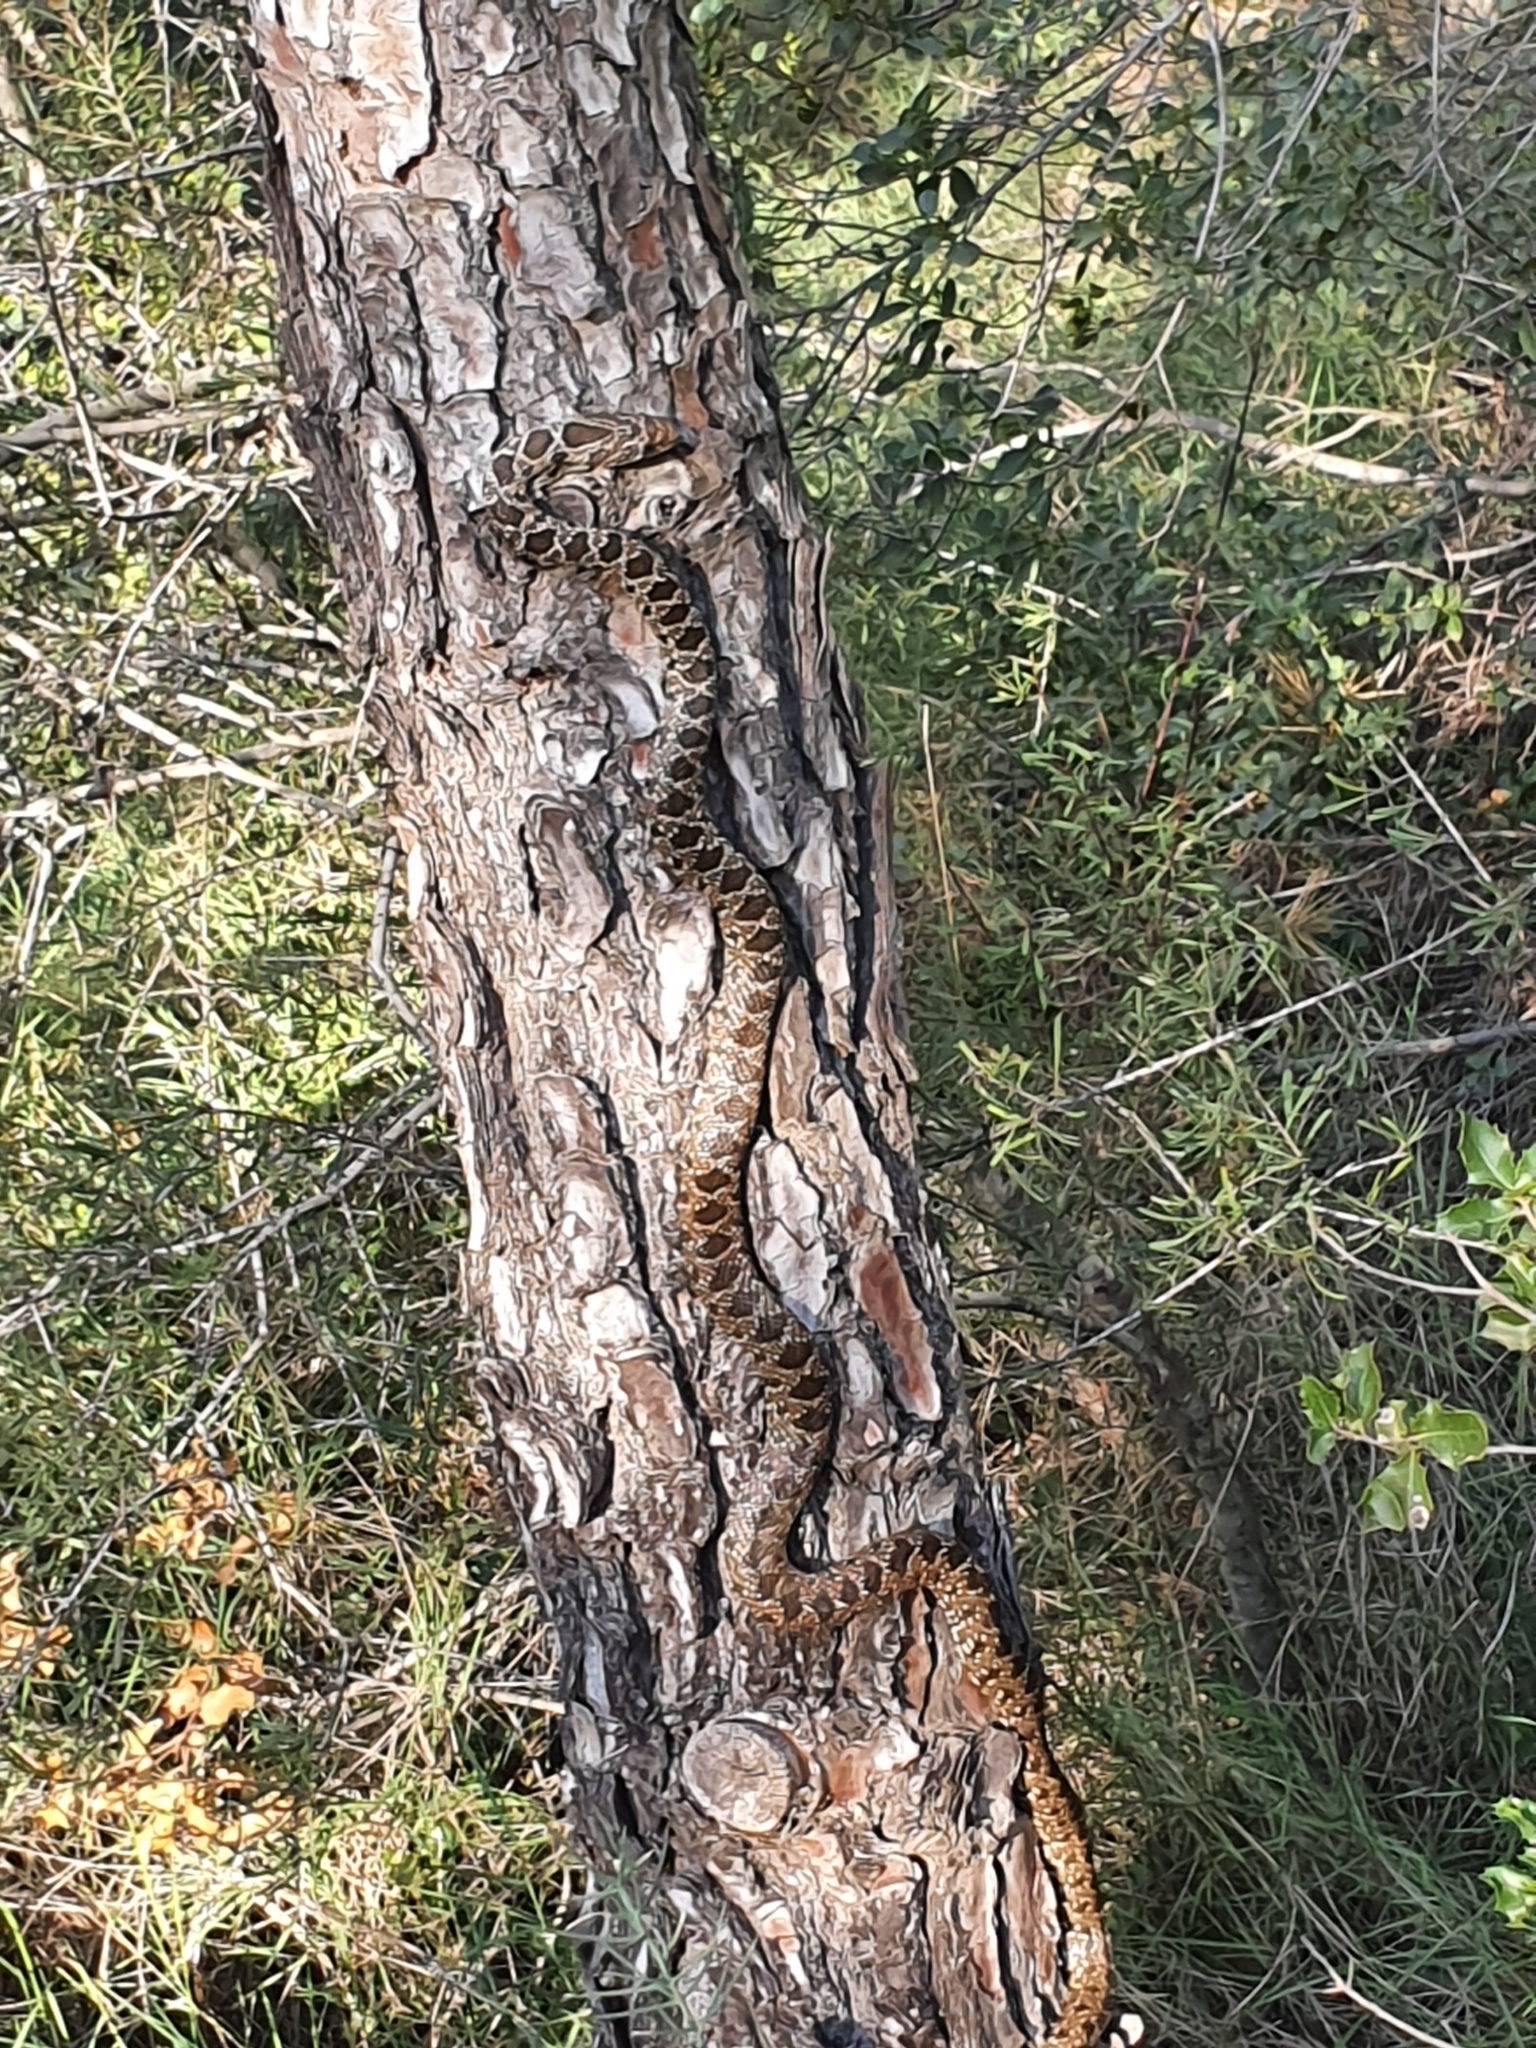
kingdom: Animalia
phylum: Chordata
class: Squamata
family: Colubridae
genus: Hemorrhois
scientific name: Hemorrhois hippocrepis
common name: Horseshoe whip snake
